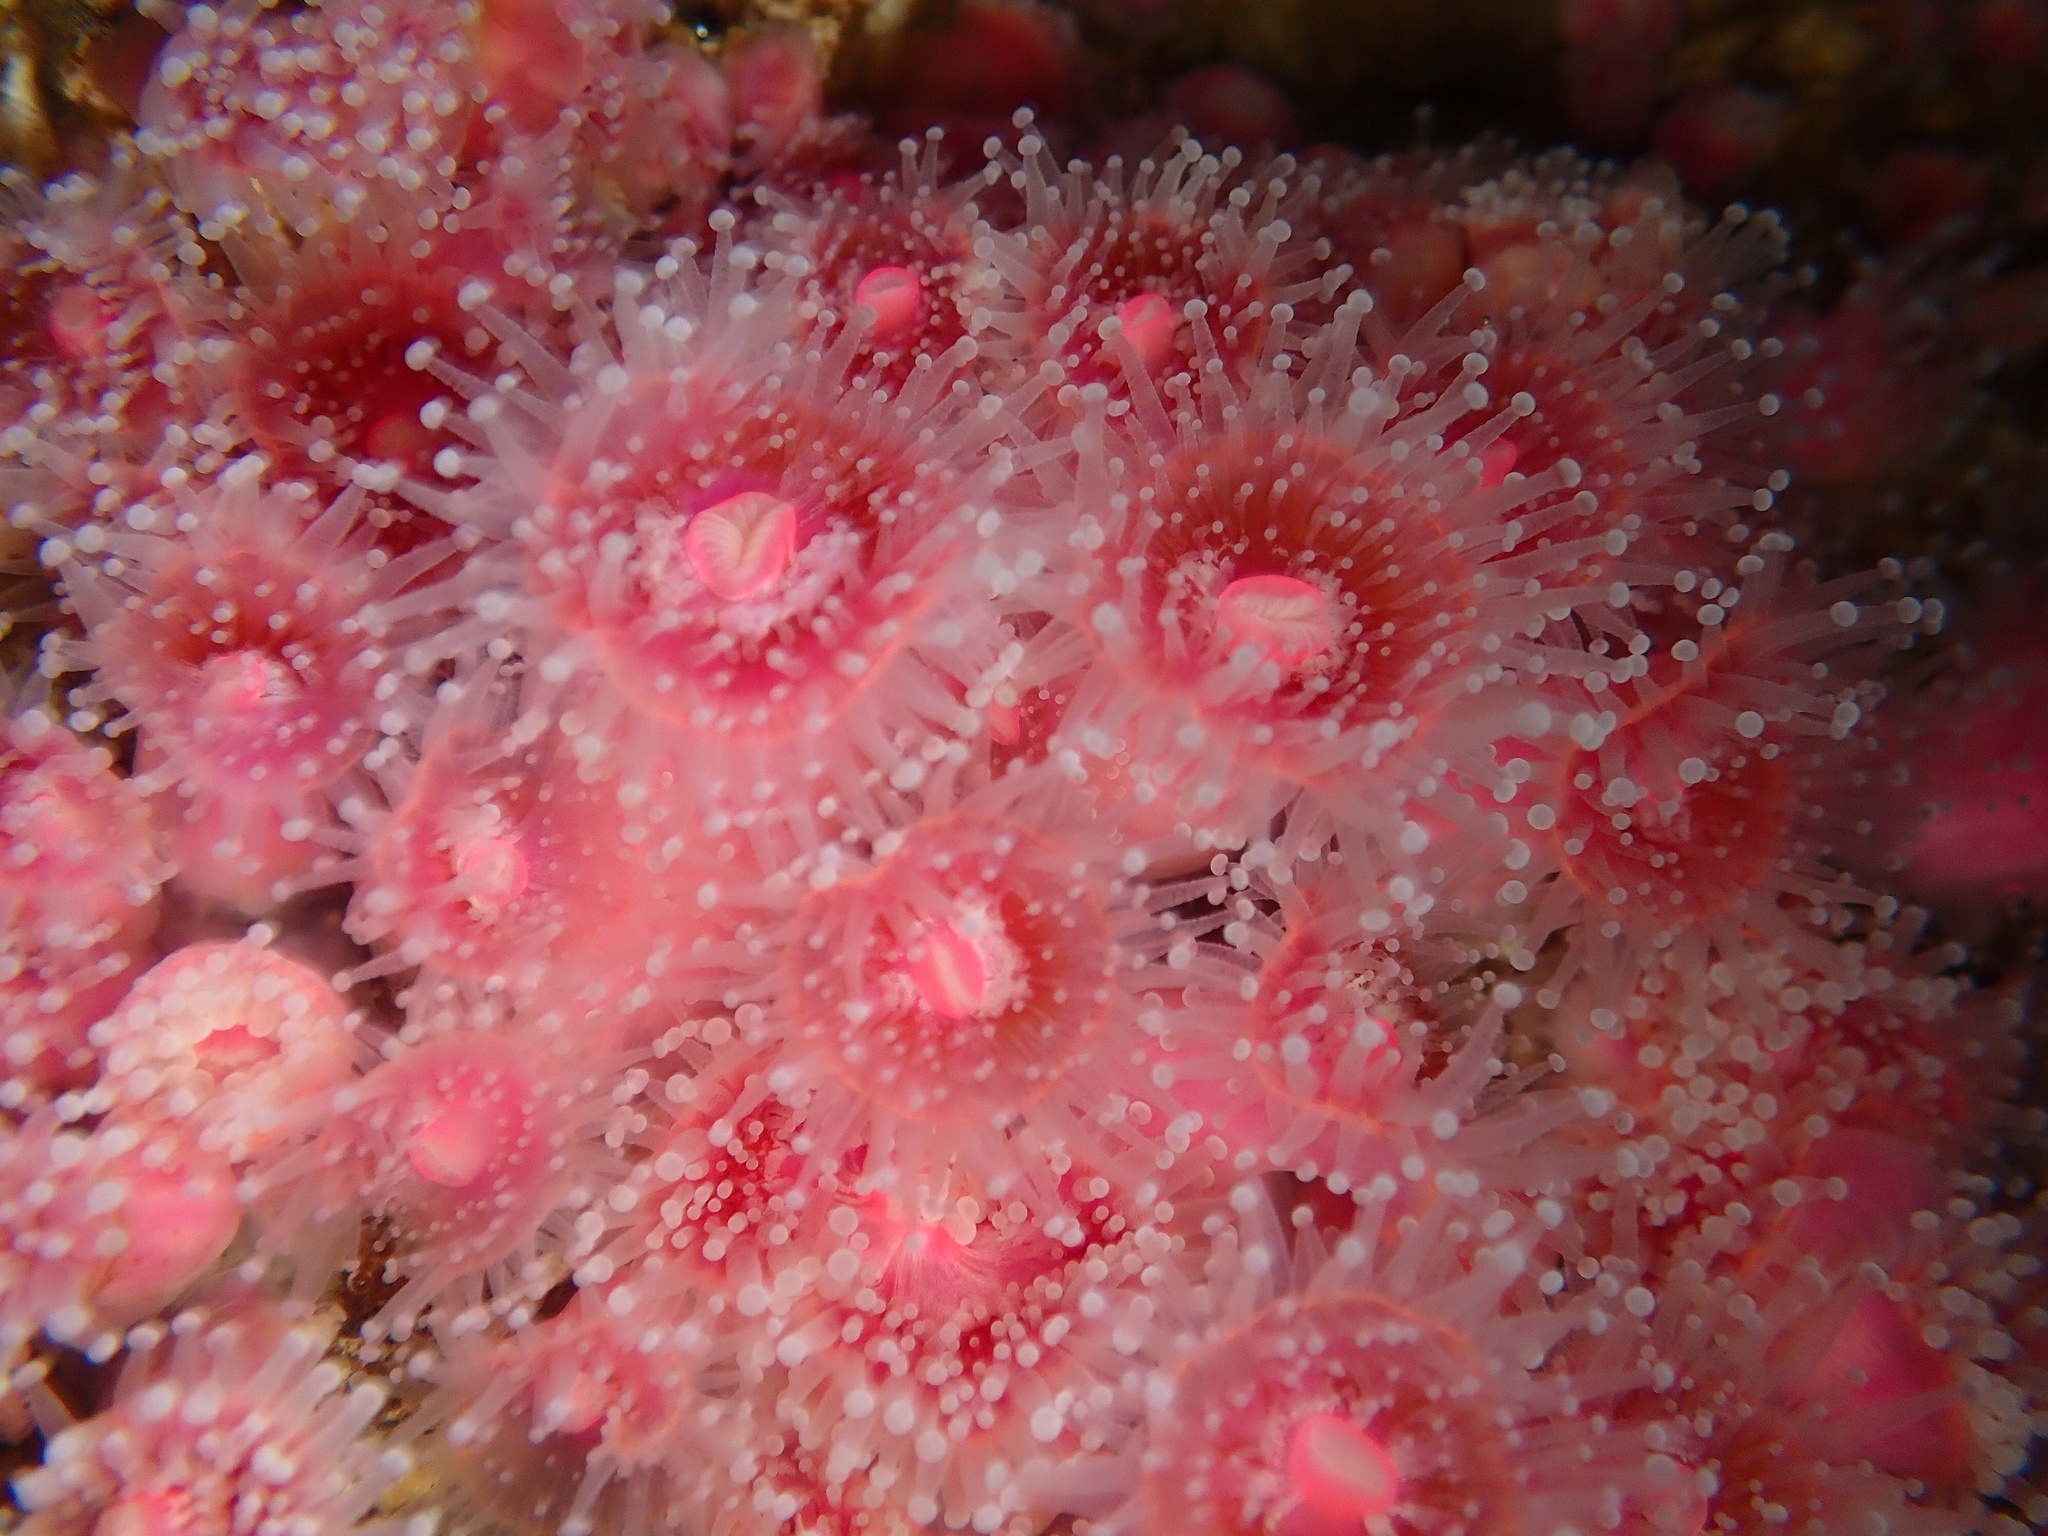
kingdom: Animalia
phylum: Cnidaria
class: Anthozoa
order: Corallimorpharia
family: Corallimorphidae
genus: Corynactis
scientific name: Corynactis californica
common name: Strawberry corallimorpharian
